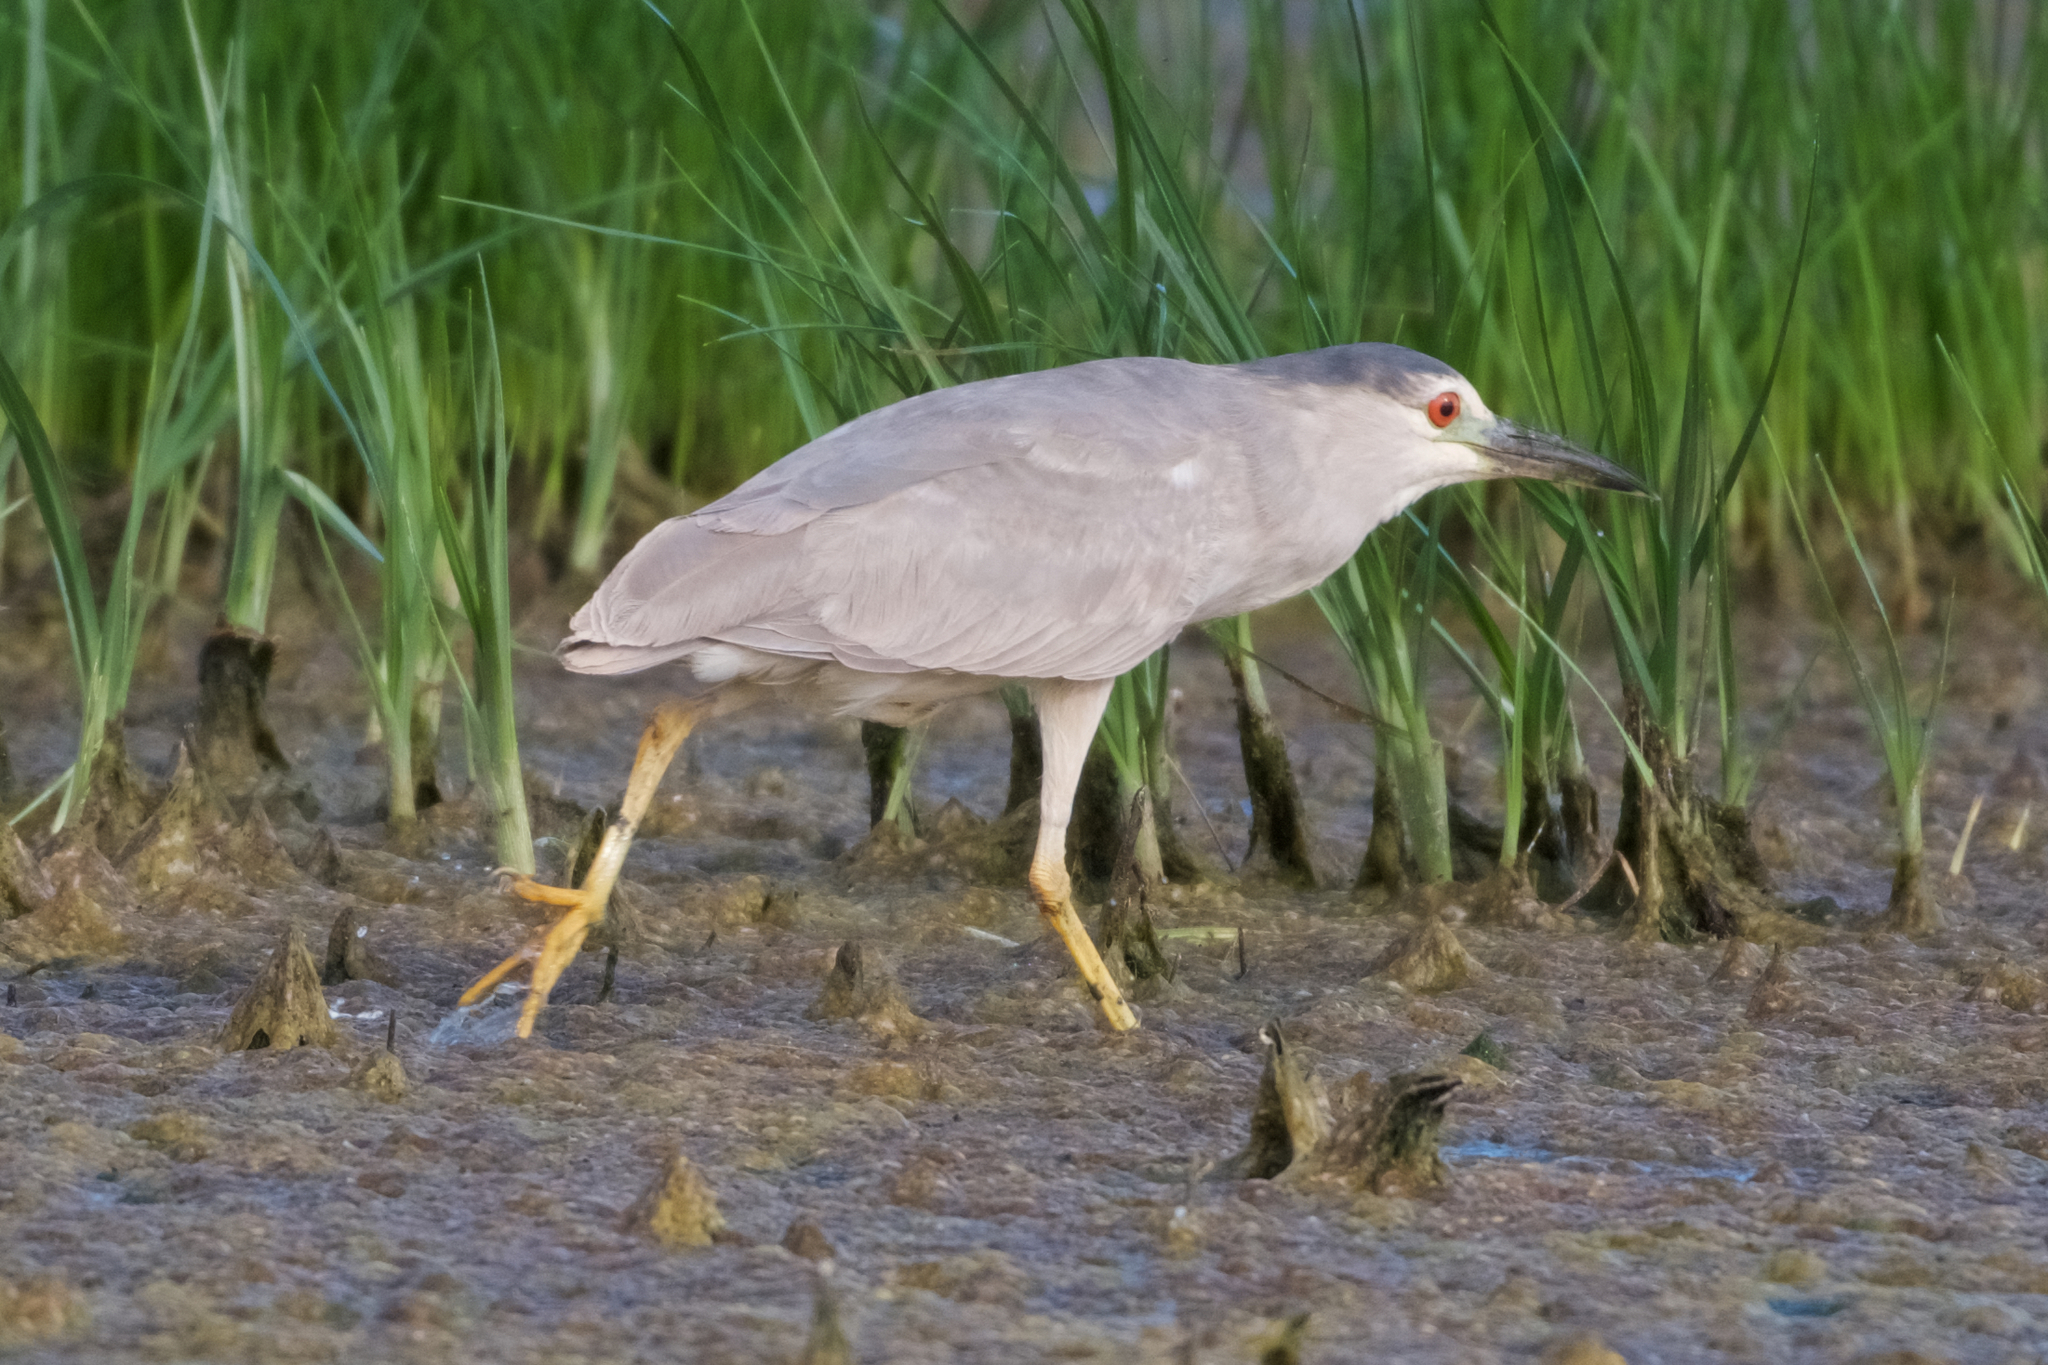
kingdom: Animalia
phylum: Chordata
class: Aves
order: Pelecaniformes
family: Ardeidae
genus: Nycticorax
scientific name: Nycticorax nycticorax
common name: Black-crowned night heron
